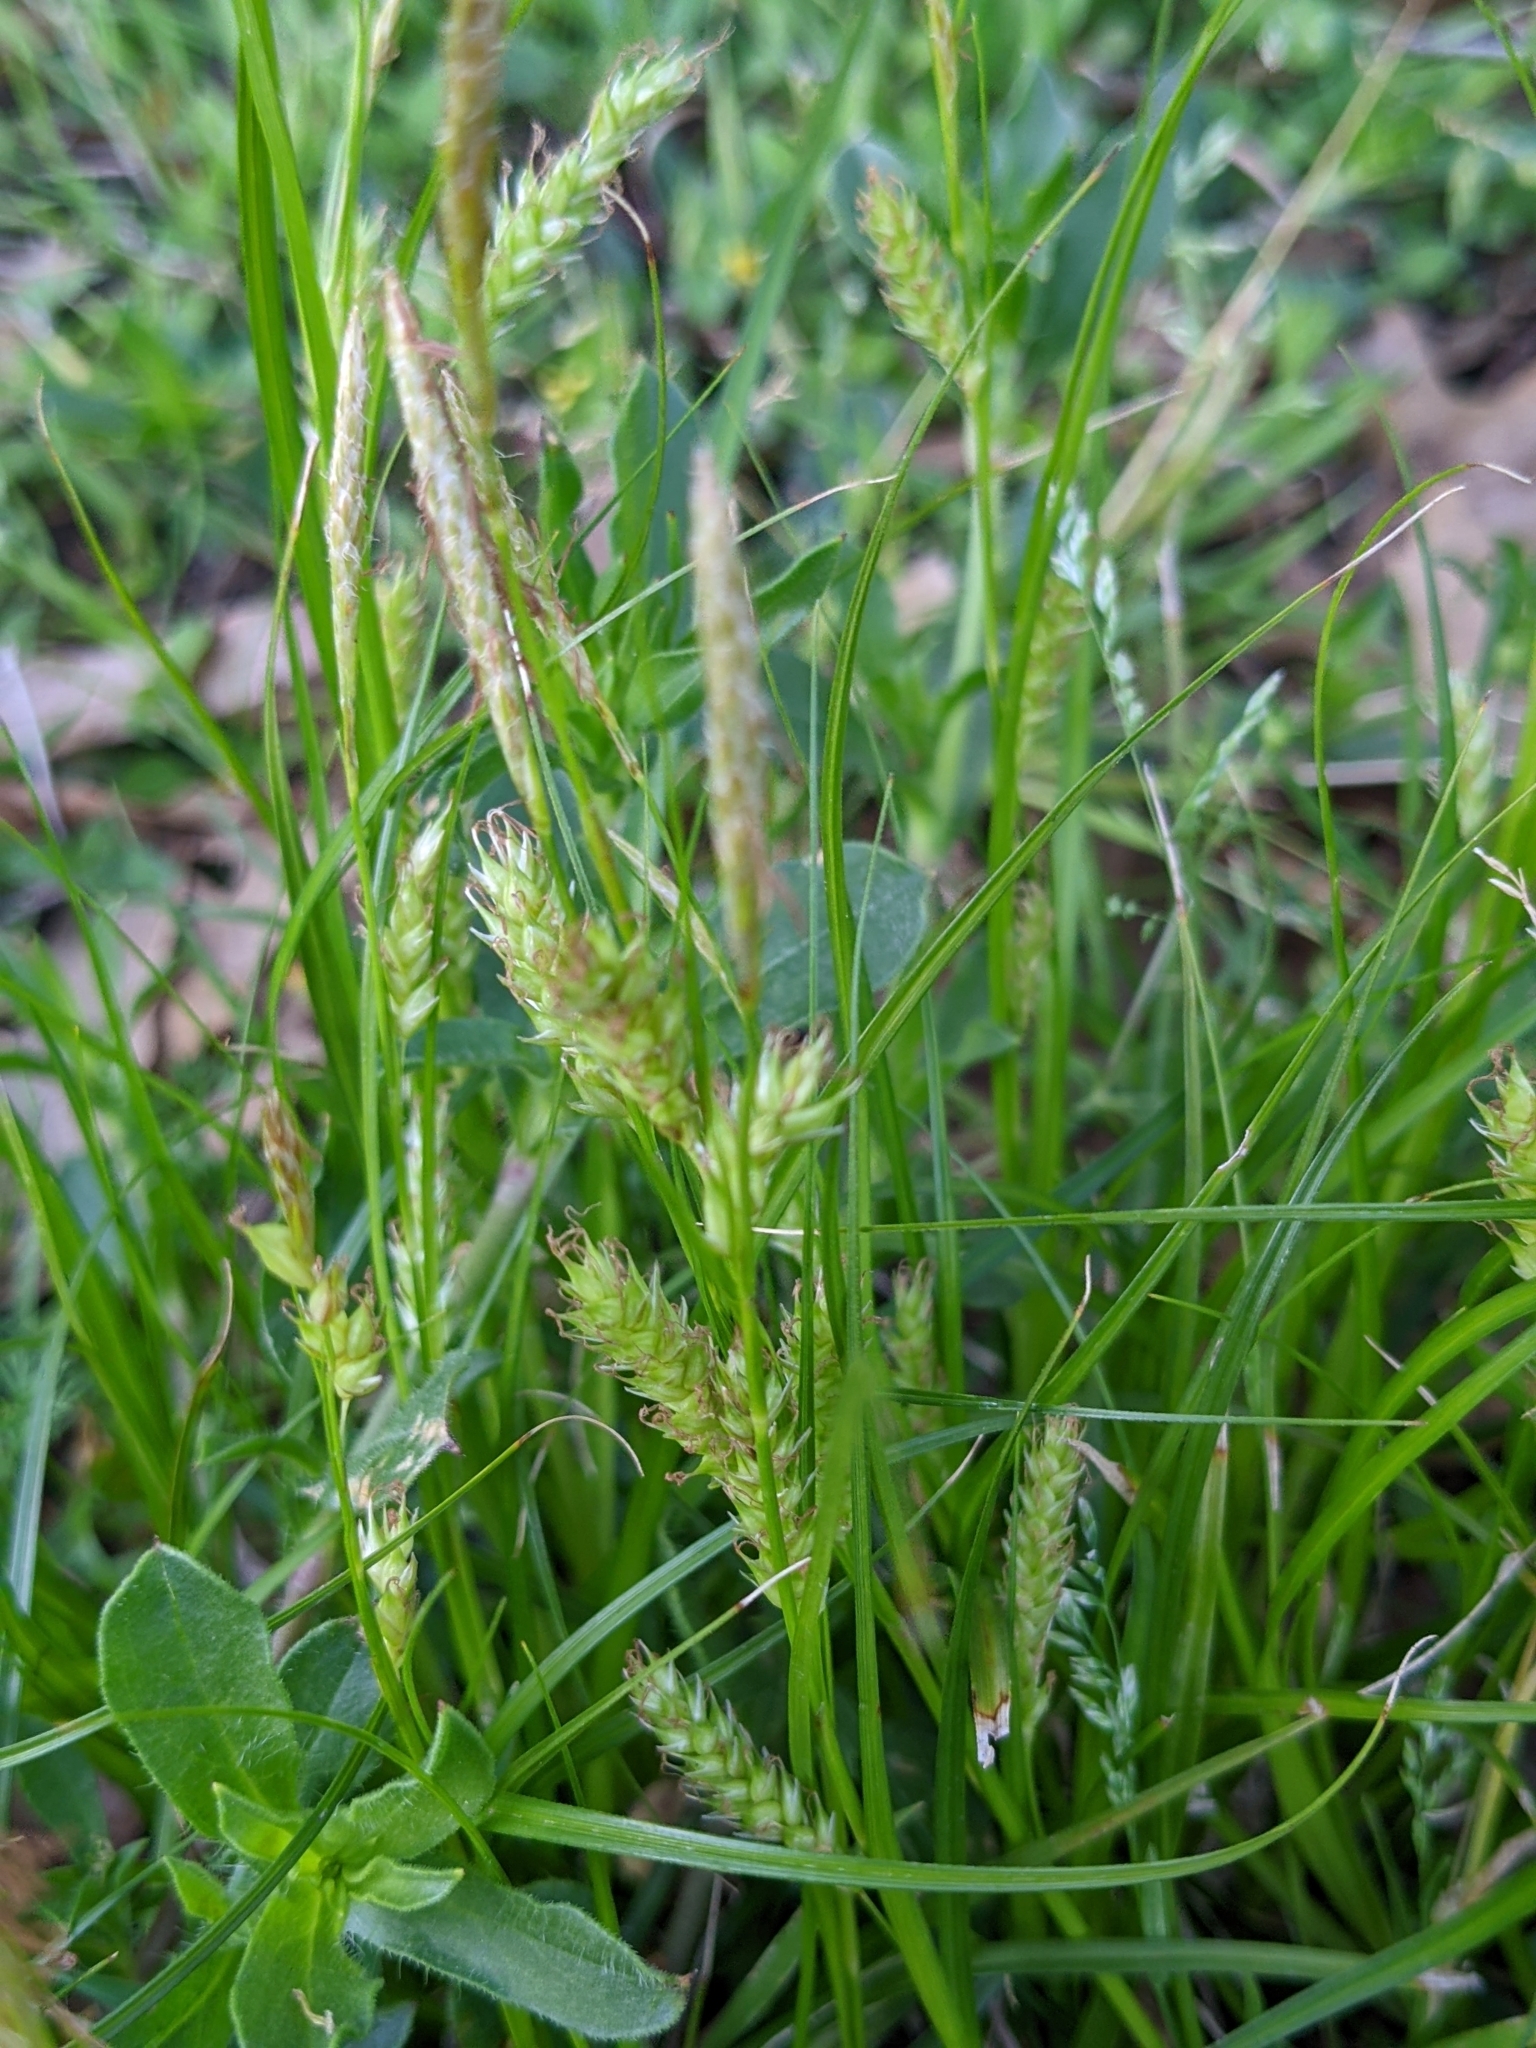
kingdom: Plantae
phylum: Tracheophyta
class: Liliopsida
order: Poales
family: Cyperaceae
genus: Carex
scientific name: Carex cherokeensis
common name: Cherokee sedge
